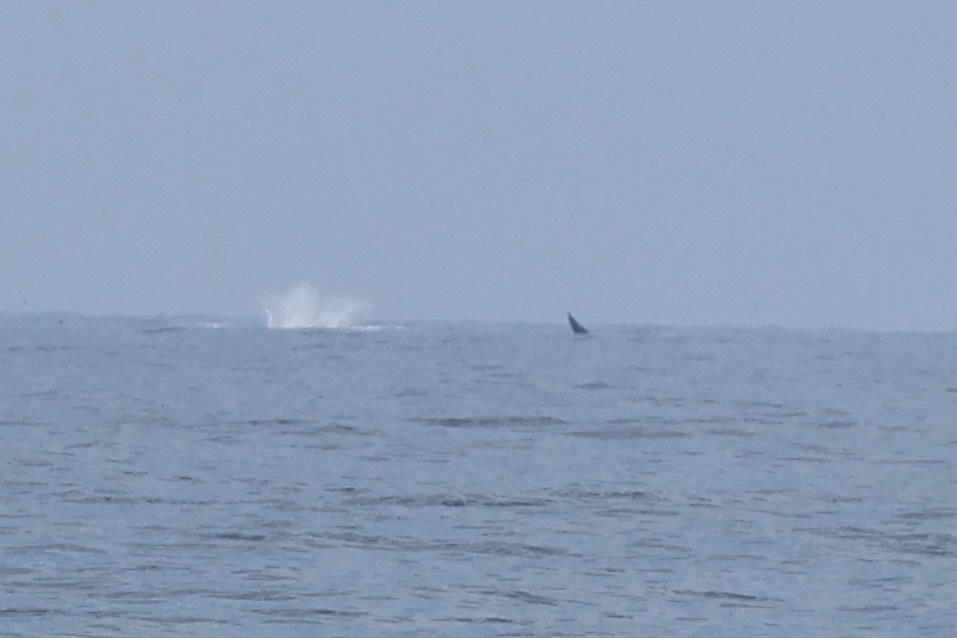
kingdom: Animalia
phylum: Chordata
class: Mammalia
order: Cetacea
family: Hyperoodontidae
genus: Mesoplodon
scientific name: Mesoplodon bidens
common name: Sowerby's beaked whale
